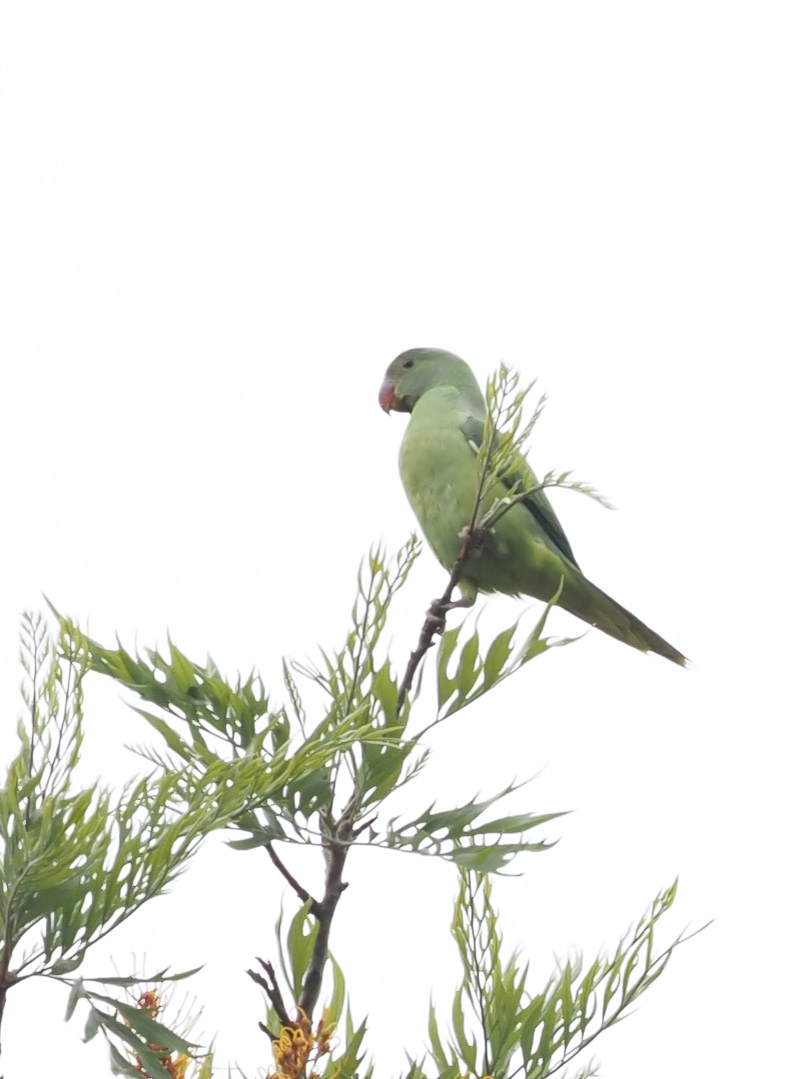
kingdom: Animalia
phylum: Chordata
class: Aves
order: Psittaciformes
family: Psittacidae
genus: Psittacula
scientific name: Psittacula krameri
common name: Rose-ringed parakeet
